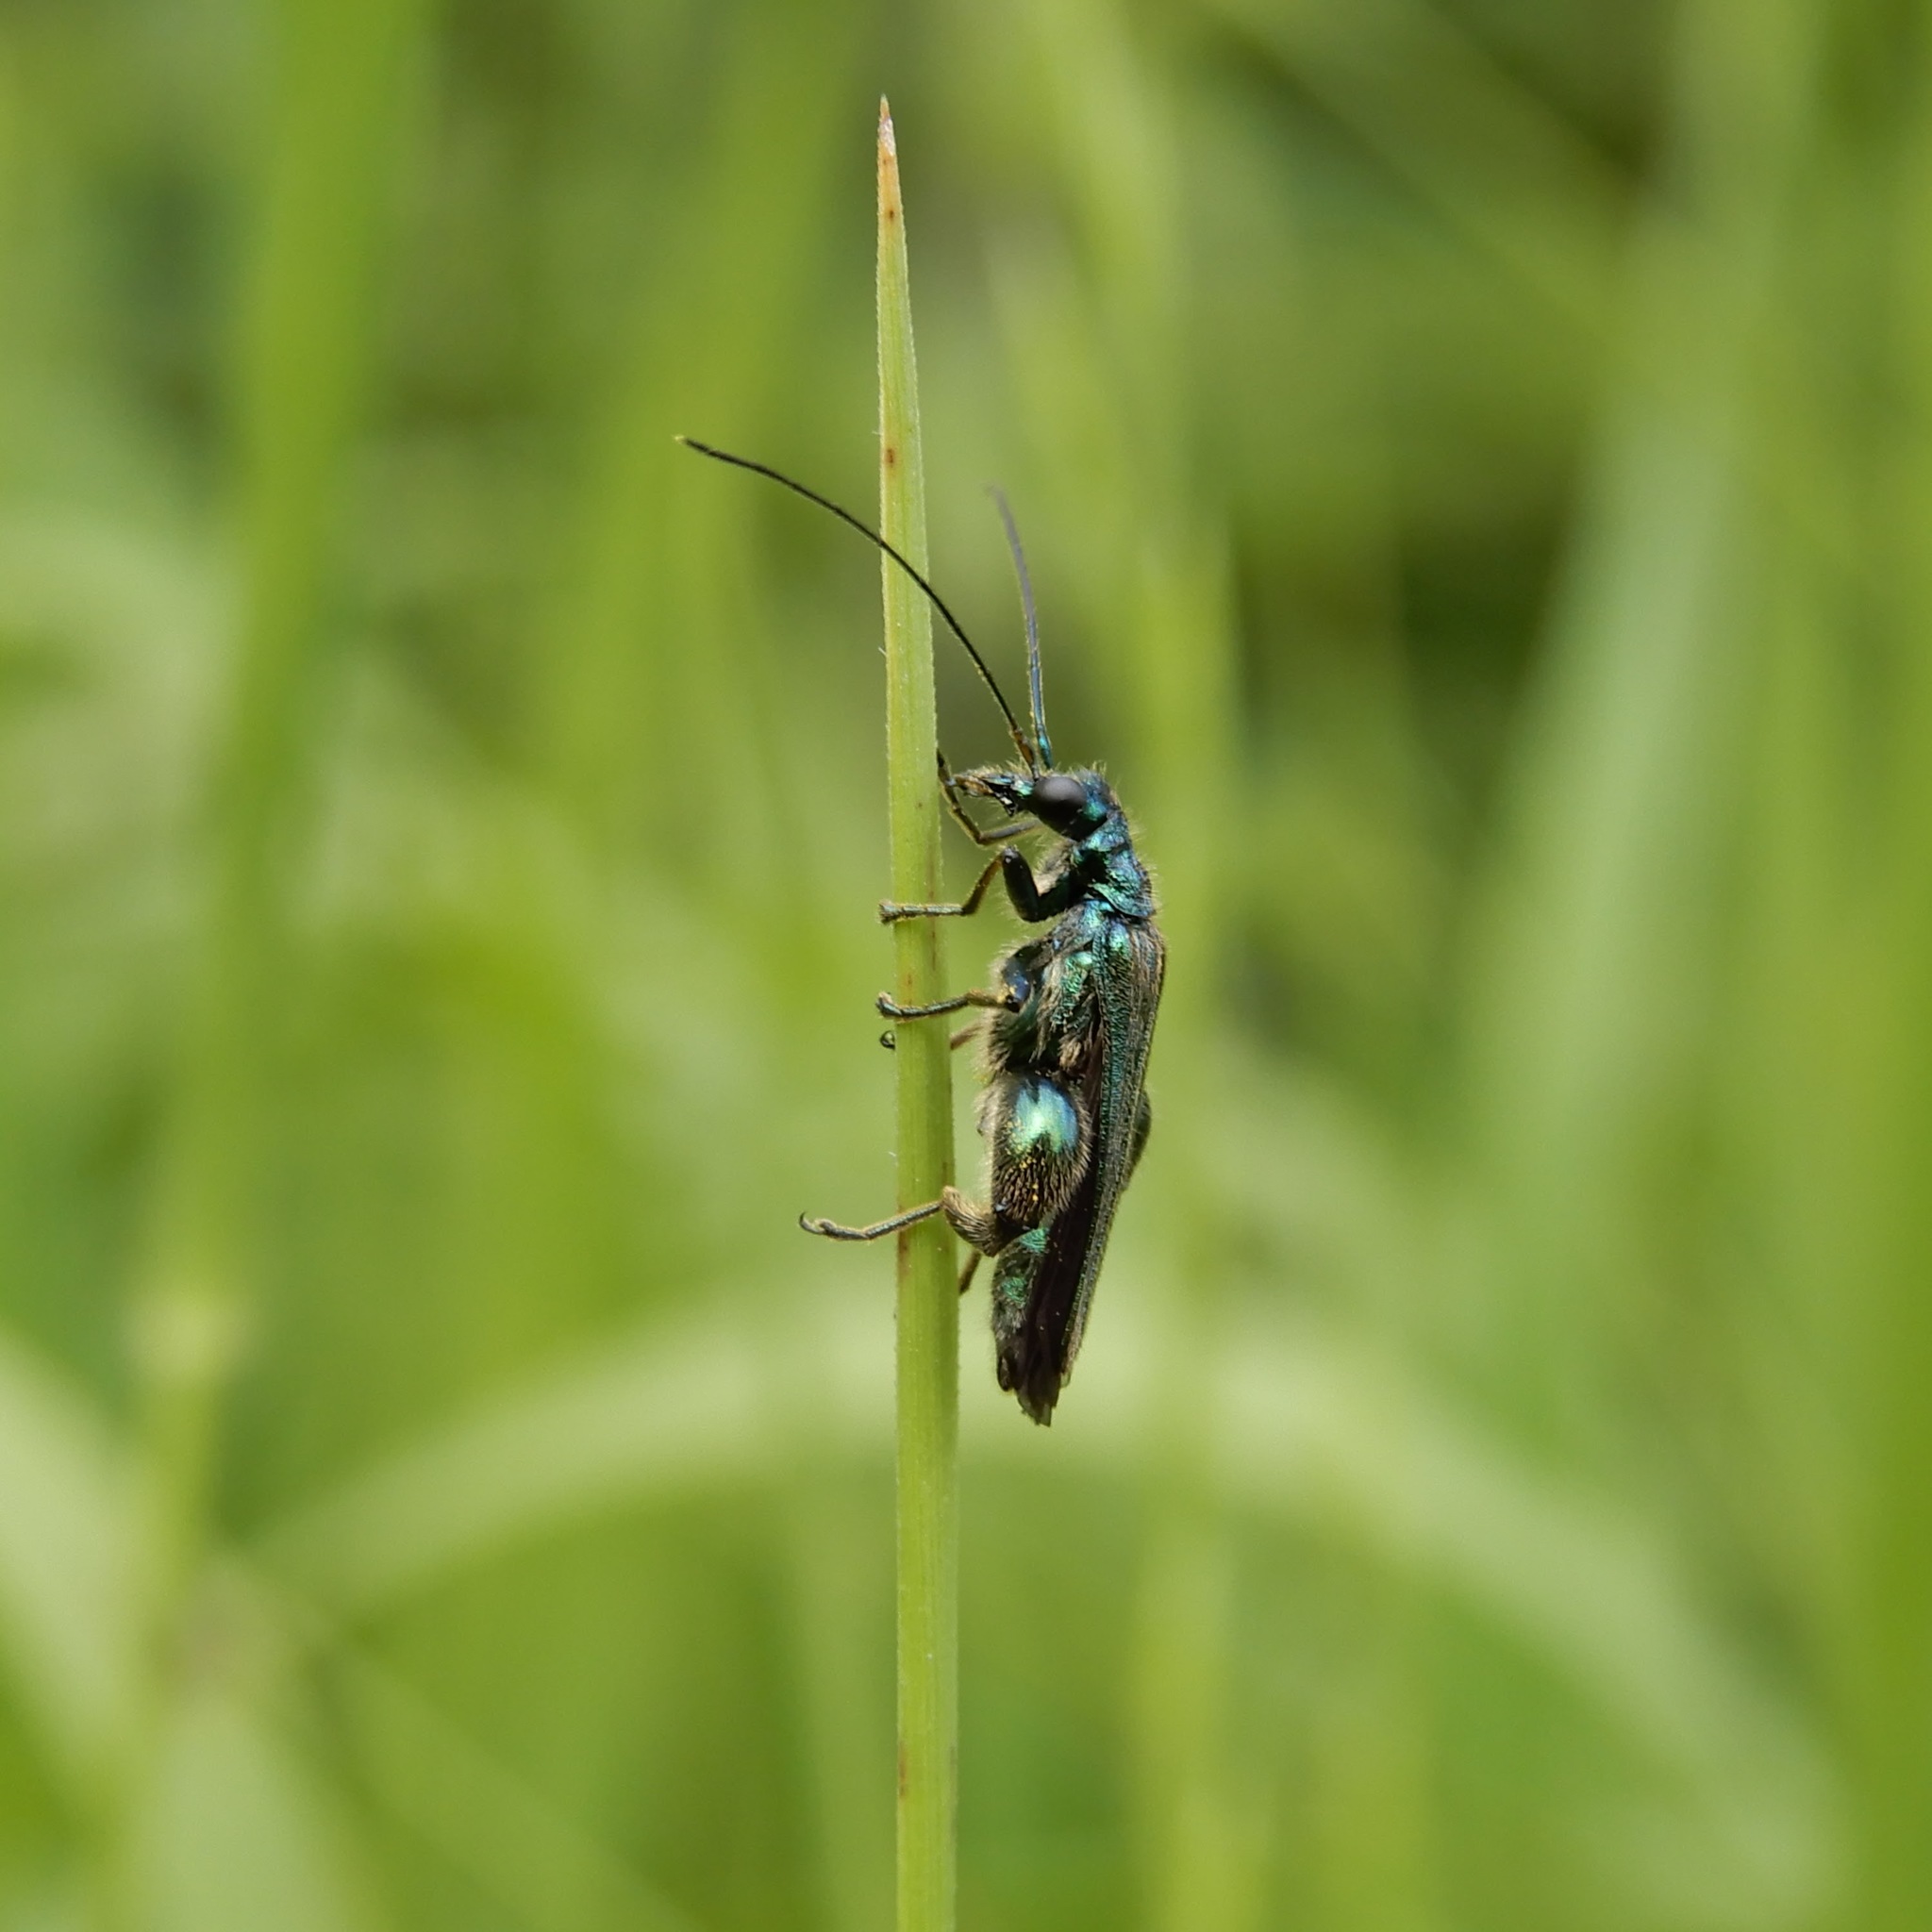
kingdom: Animalia
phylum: Arthropoda
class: Insecta
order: Coleoptera
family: Oedemeridae
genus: Oedemera
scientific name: Oedemera nobilis
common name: Swollen-thighed beetle
